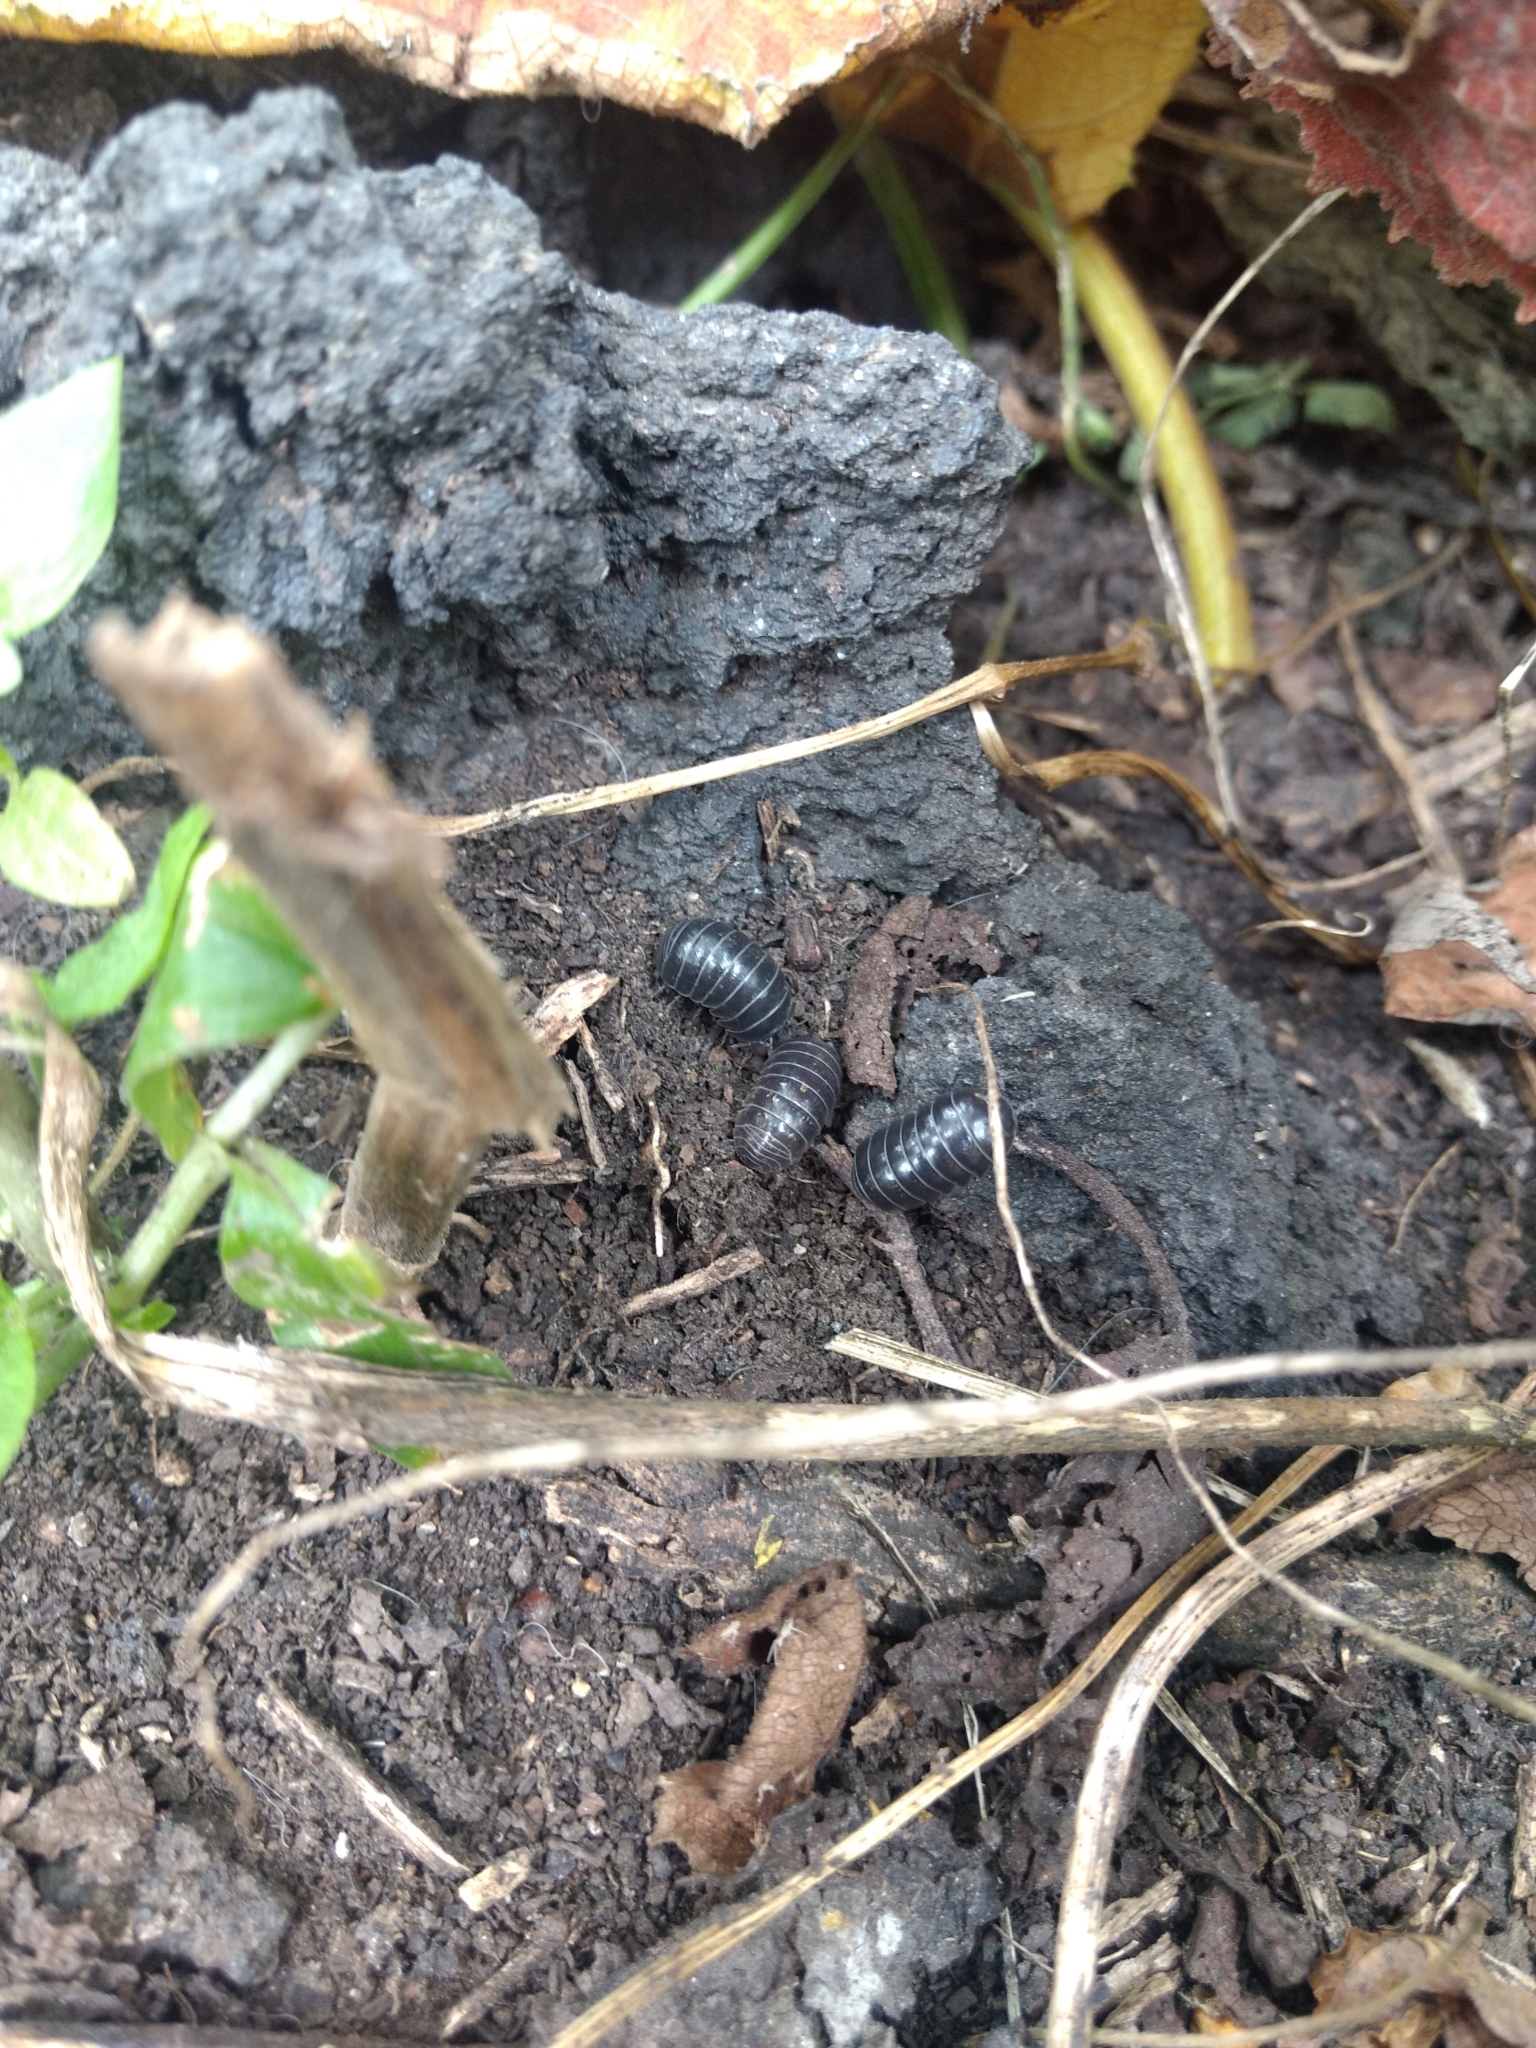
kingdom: Animalia
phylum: Arthropoda
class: Malacostraca
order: Isopoda
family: Armadillidiidae
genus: Armadillidium
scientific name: Armadillidium vulgare
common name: Common pill woodlouse
